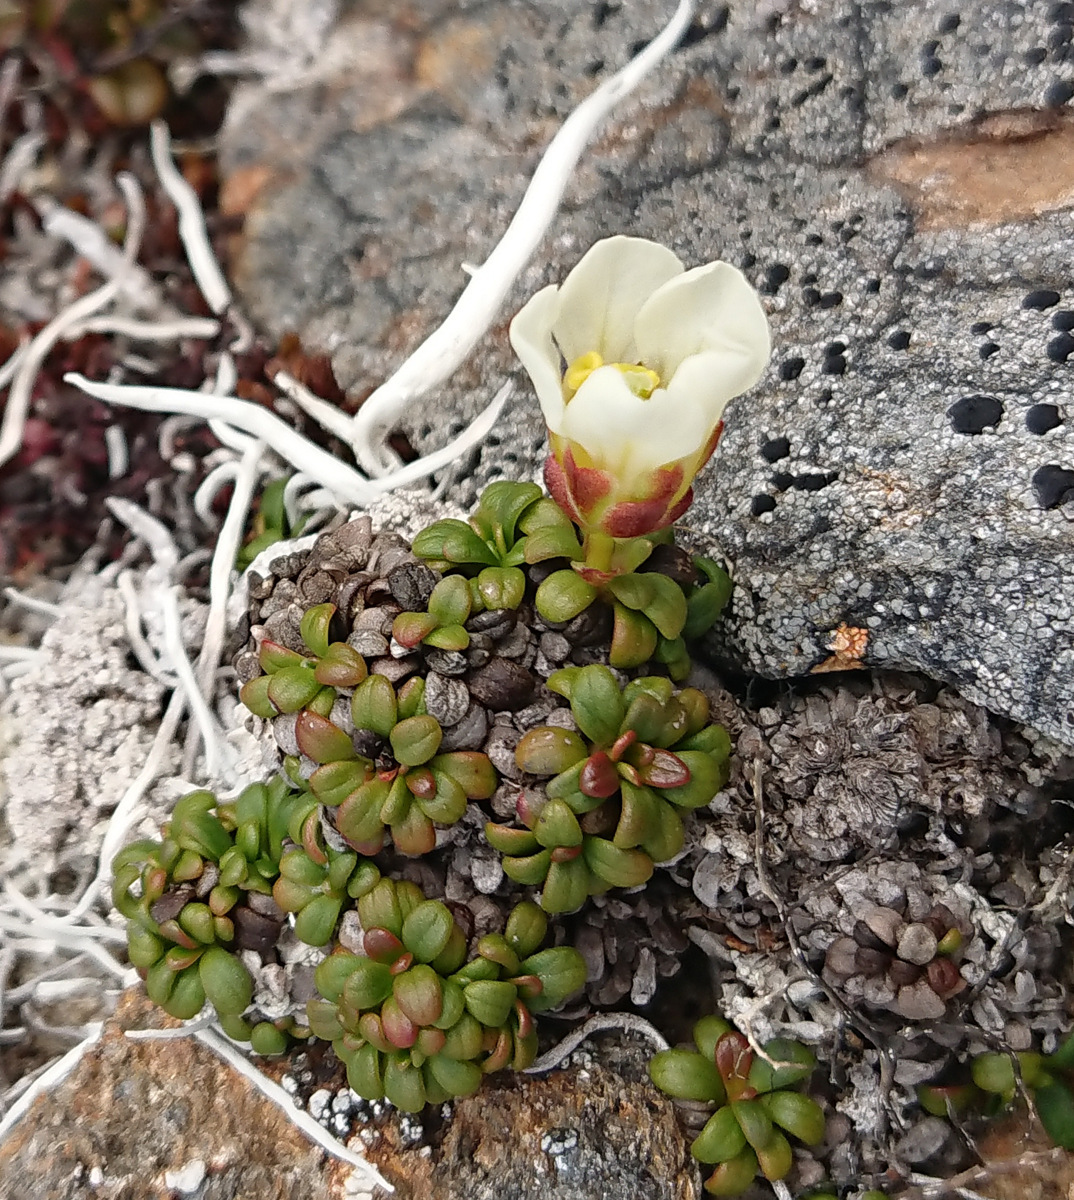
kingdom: Plantae
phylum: Tracheophyta
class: Magnoliopsida
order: Ericales
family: Diapensiaceae
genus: Diapensia
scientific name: Diapensia obovata
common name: Alaska diapensia
